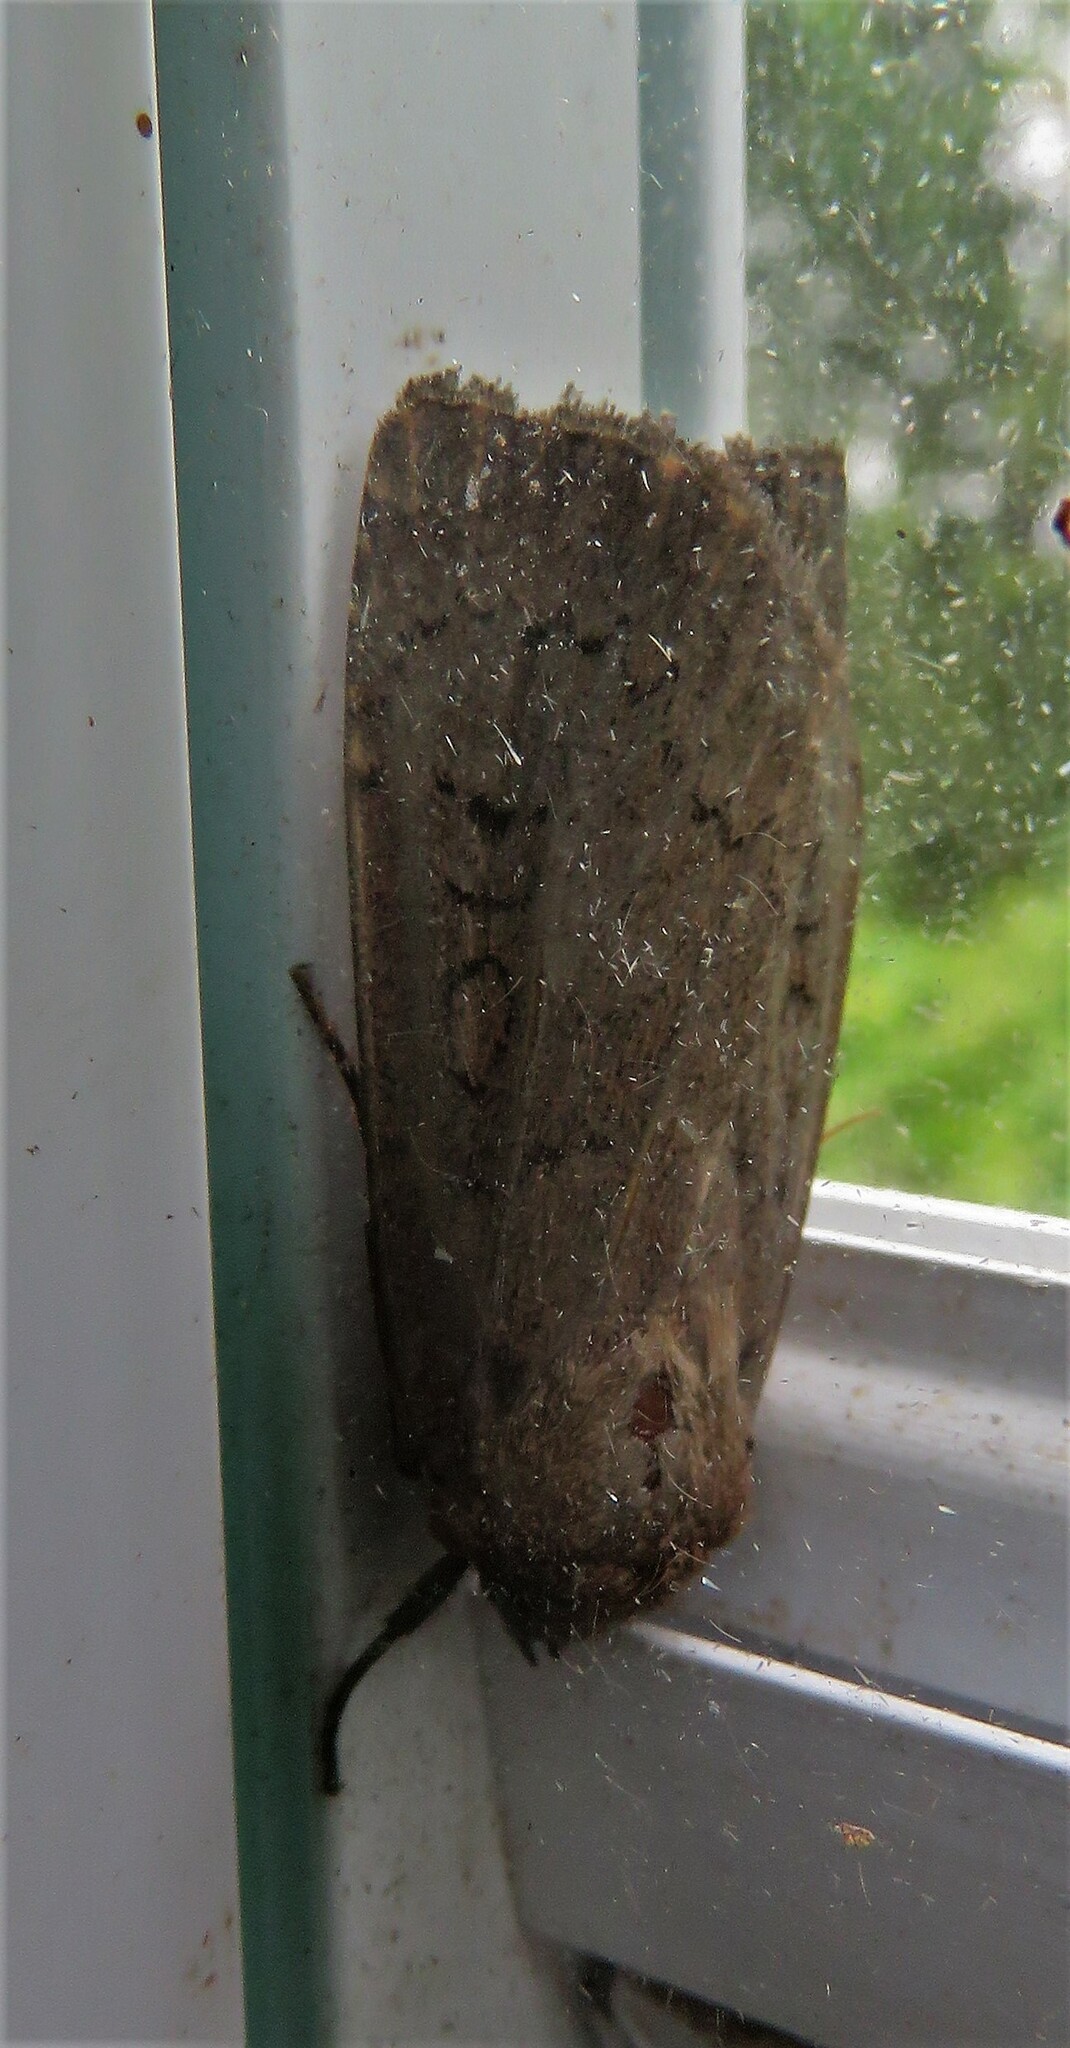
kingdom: Animalia
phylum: Arthropoda
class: Insecta
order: Lepidoptera
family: Noctuidae
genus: Graphiphora
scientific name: Graphiphora augur
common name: Double dart
